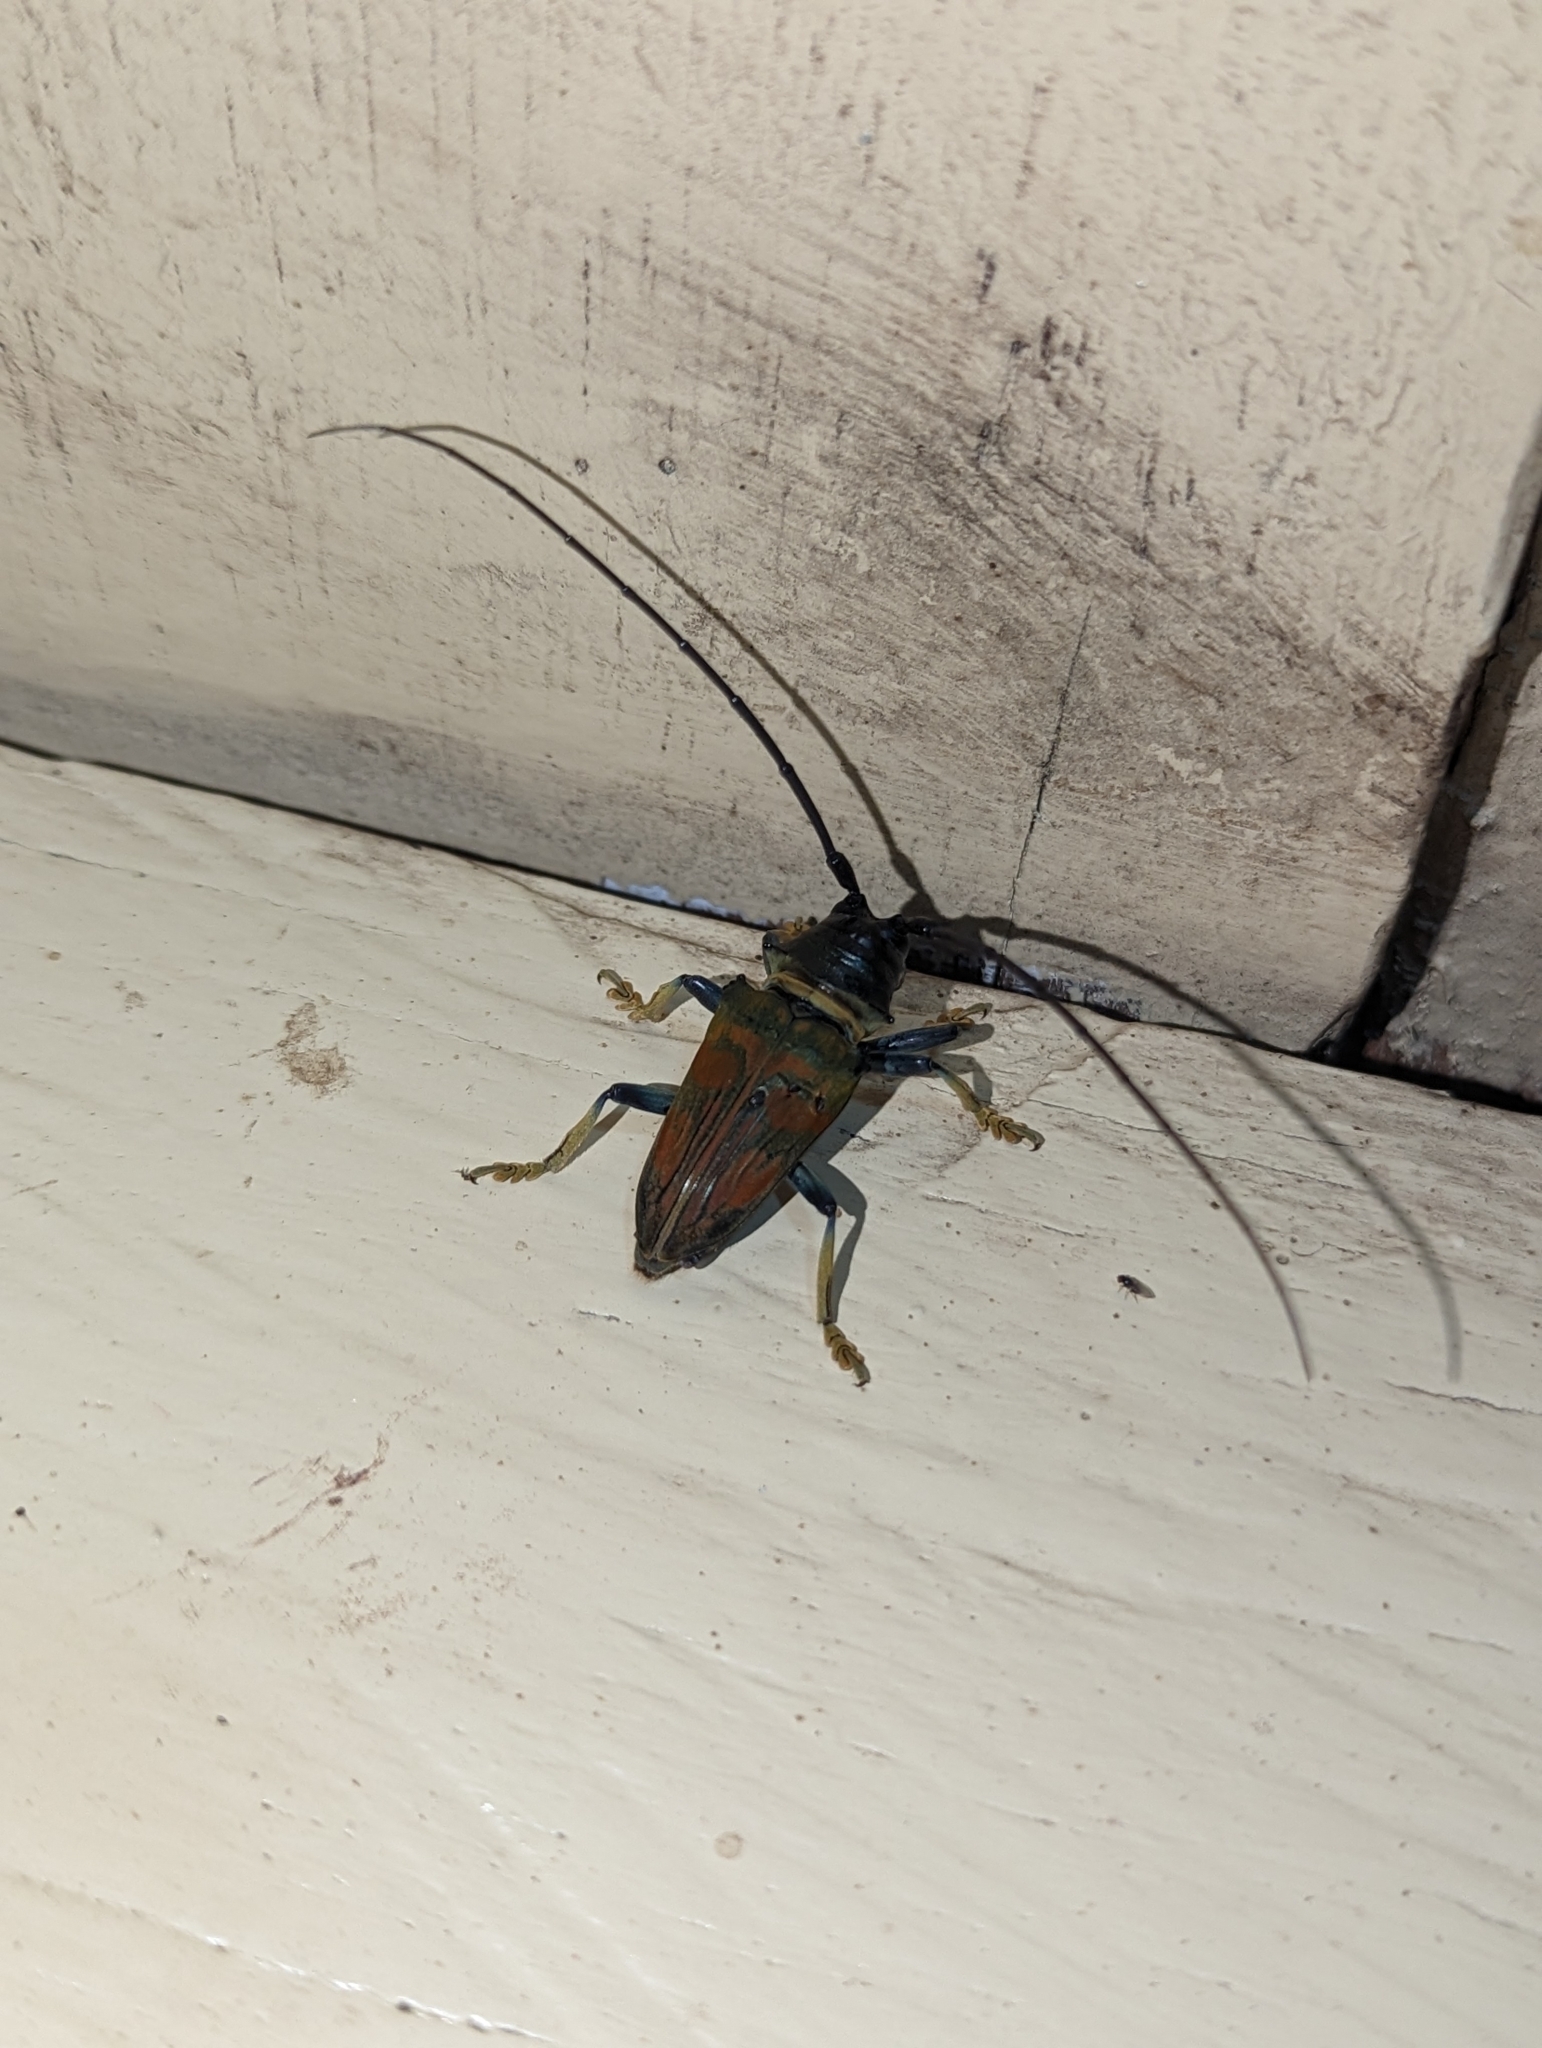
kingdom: Animalia
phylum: Arthropoda
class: Insecta
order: Coleoptera
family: Cerambycidae
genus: Sternotomis
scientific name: Sternotomis rufozonata
